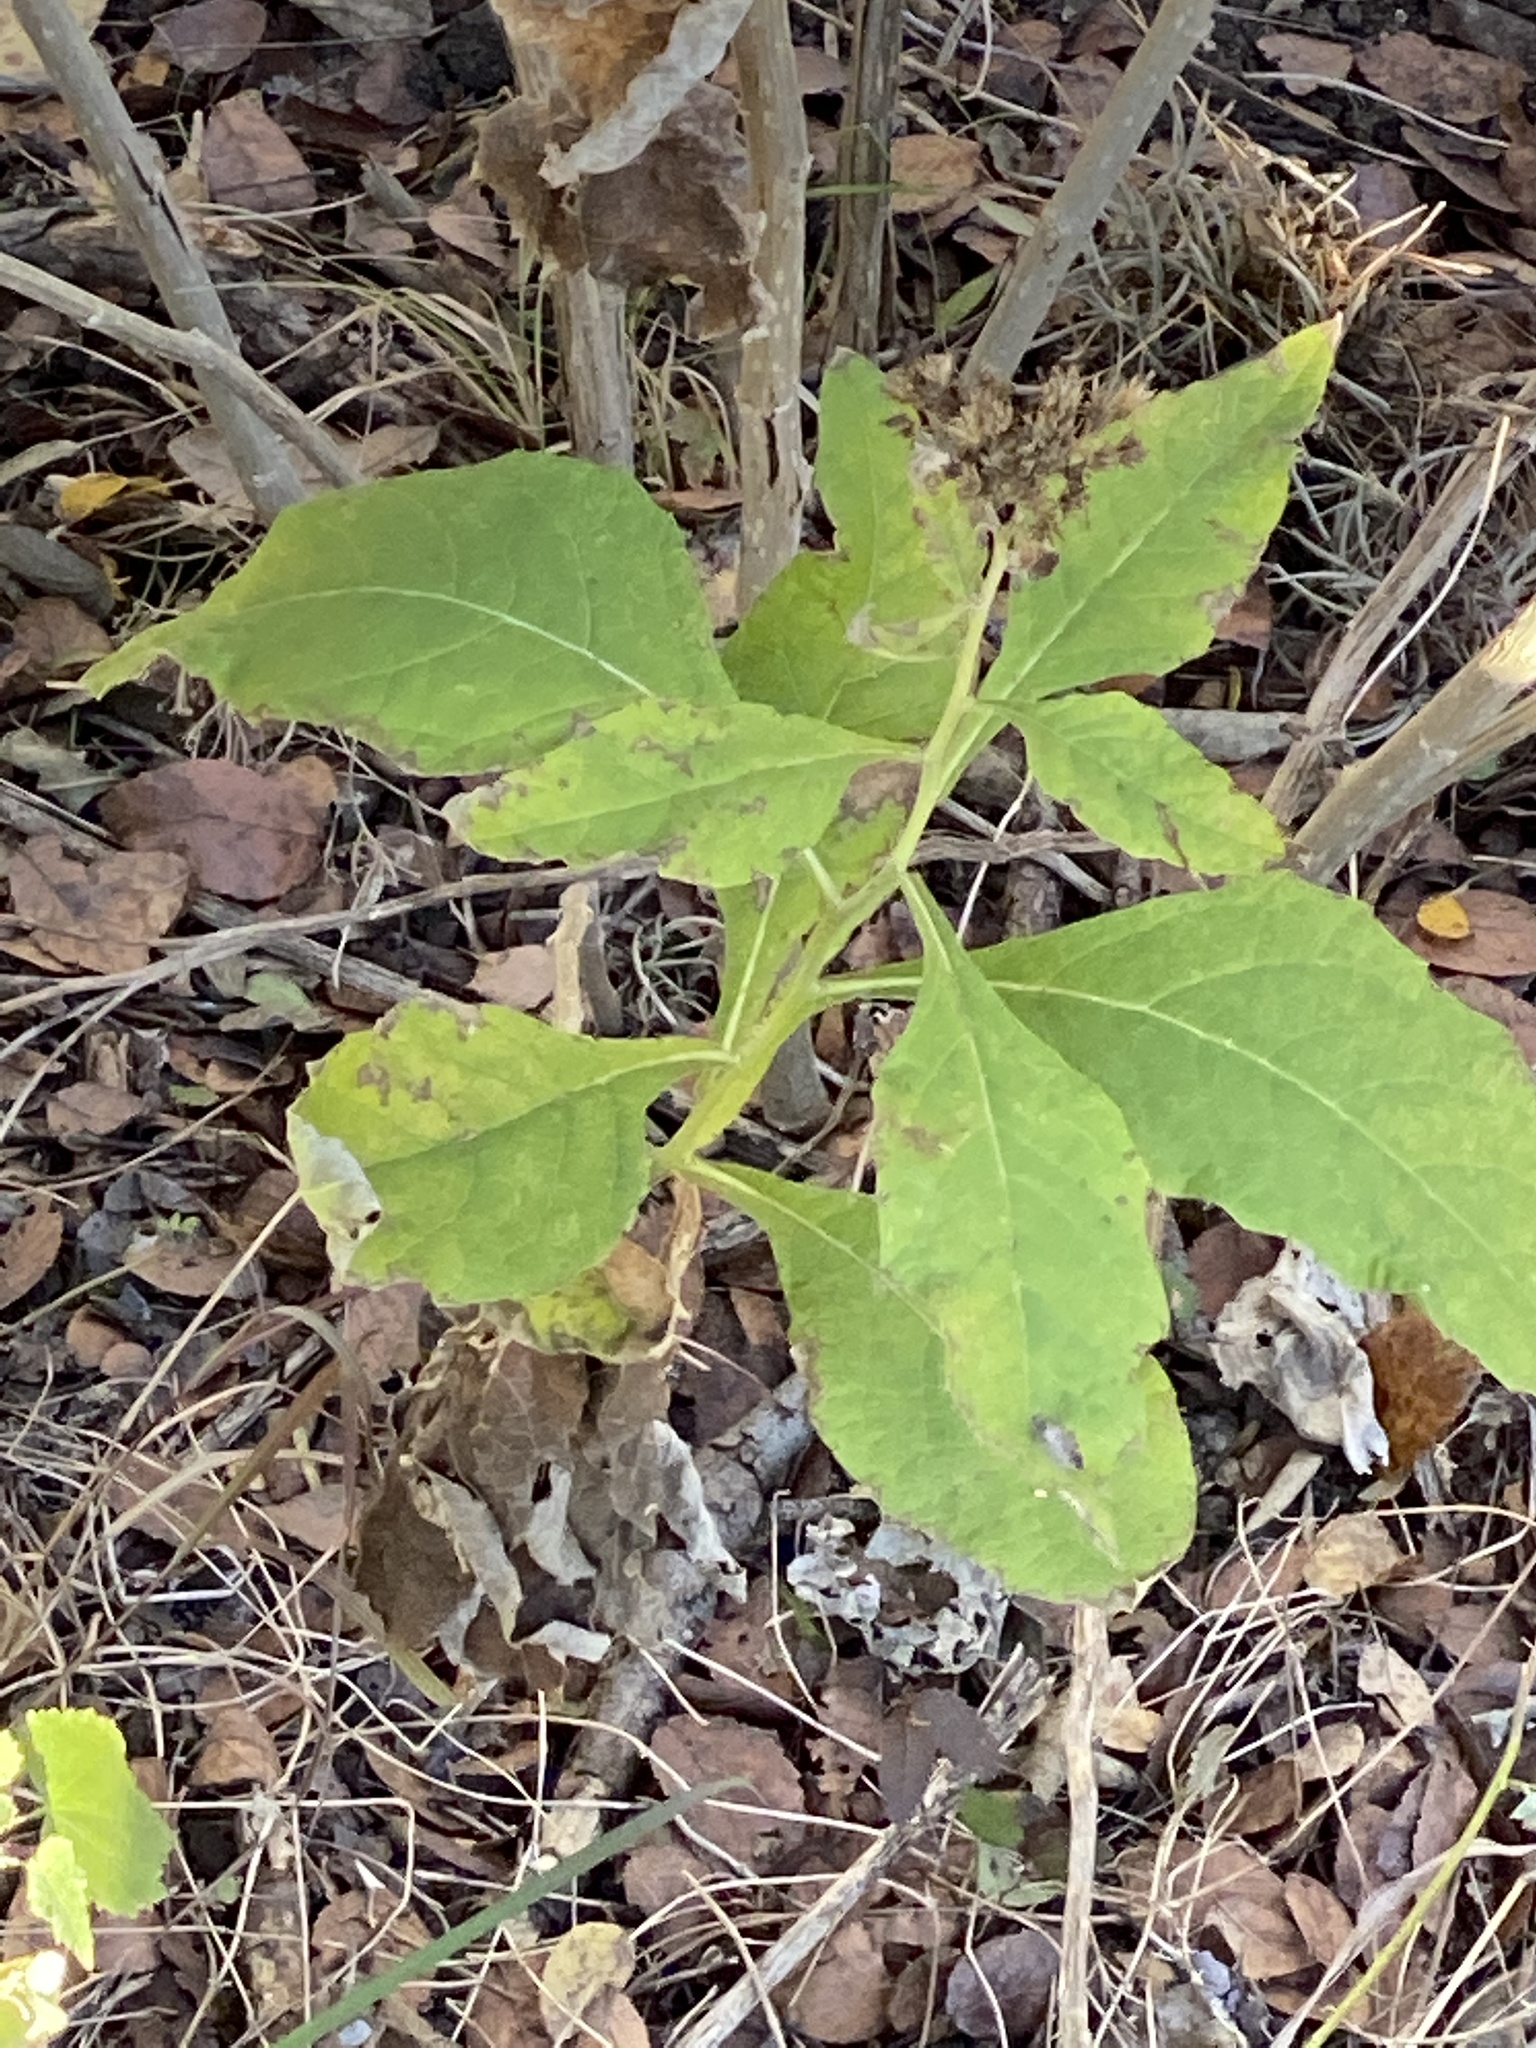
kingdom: Plantae
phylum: Tracheophyta
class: Magnoliopsida
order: Asterales
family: Asteraceae
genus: Verbesina
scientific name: Verbesina virginica
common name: Frostweed
